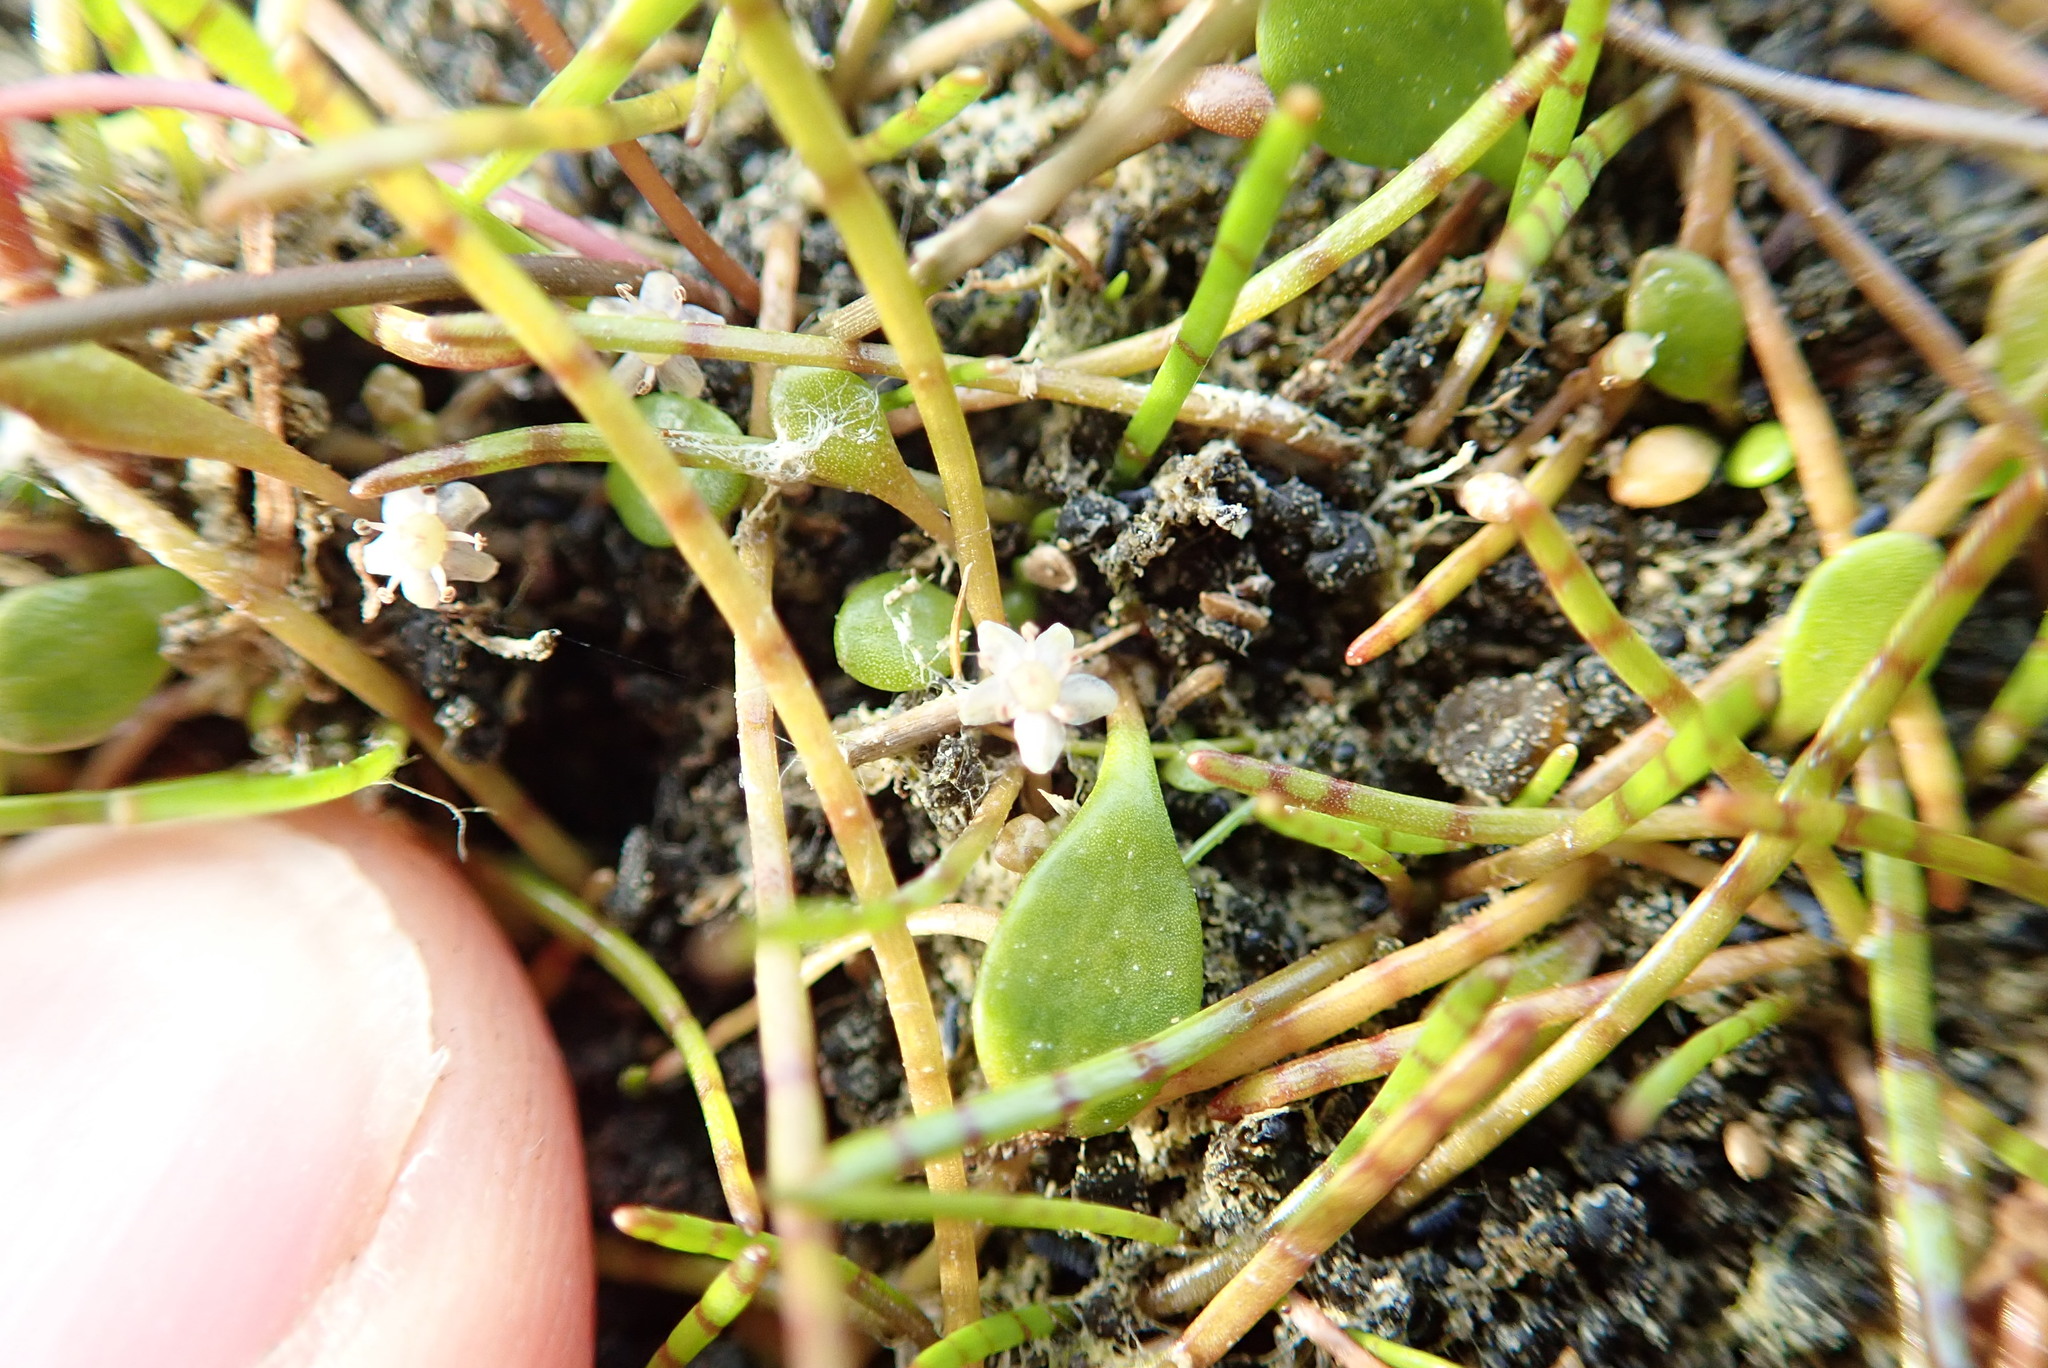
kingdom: Plantae
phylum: Tracheophyta
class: Magnoliopsida
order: Apiales
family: Apiaceae
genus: Lilaeopsis
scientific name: Lilaeopsis novae-zelandiae
